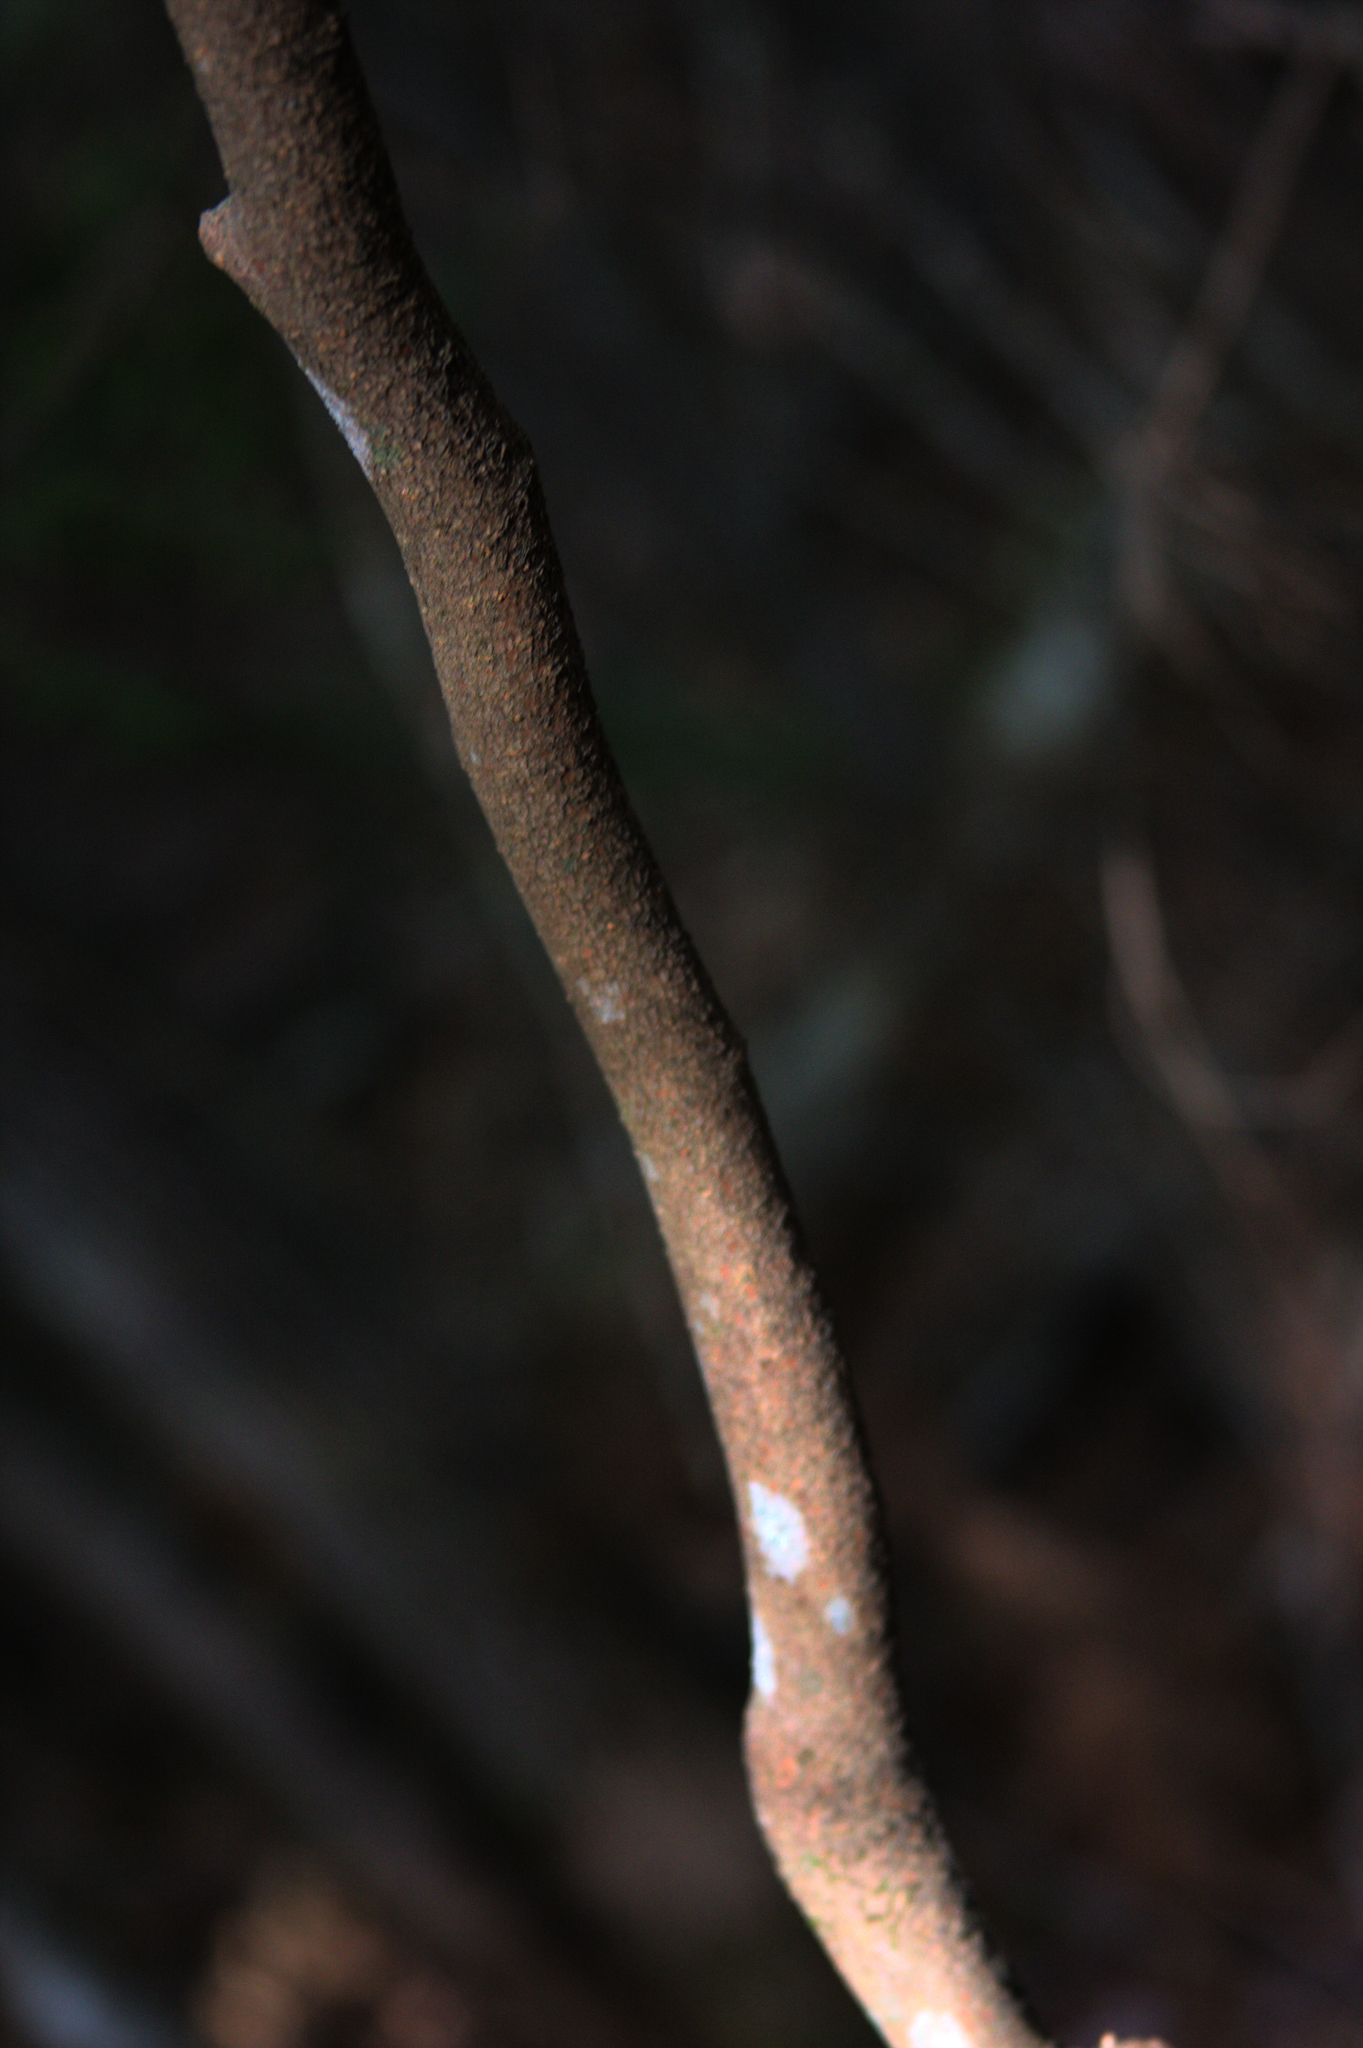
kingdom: Plantae
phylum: Tracheophyta
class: Magnoliopsida
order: Saxifragales
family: Hamamelidaceae
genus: Hamamelis
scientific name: Hamamelis virginiana
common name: Witch-hazel
